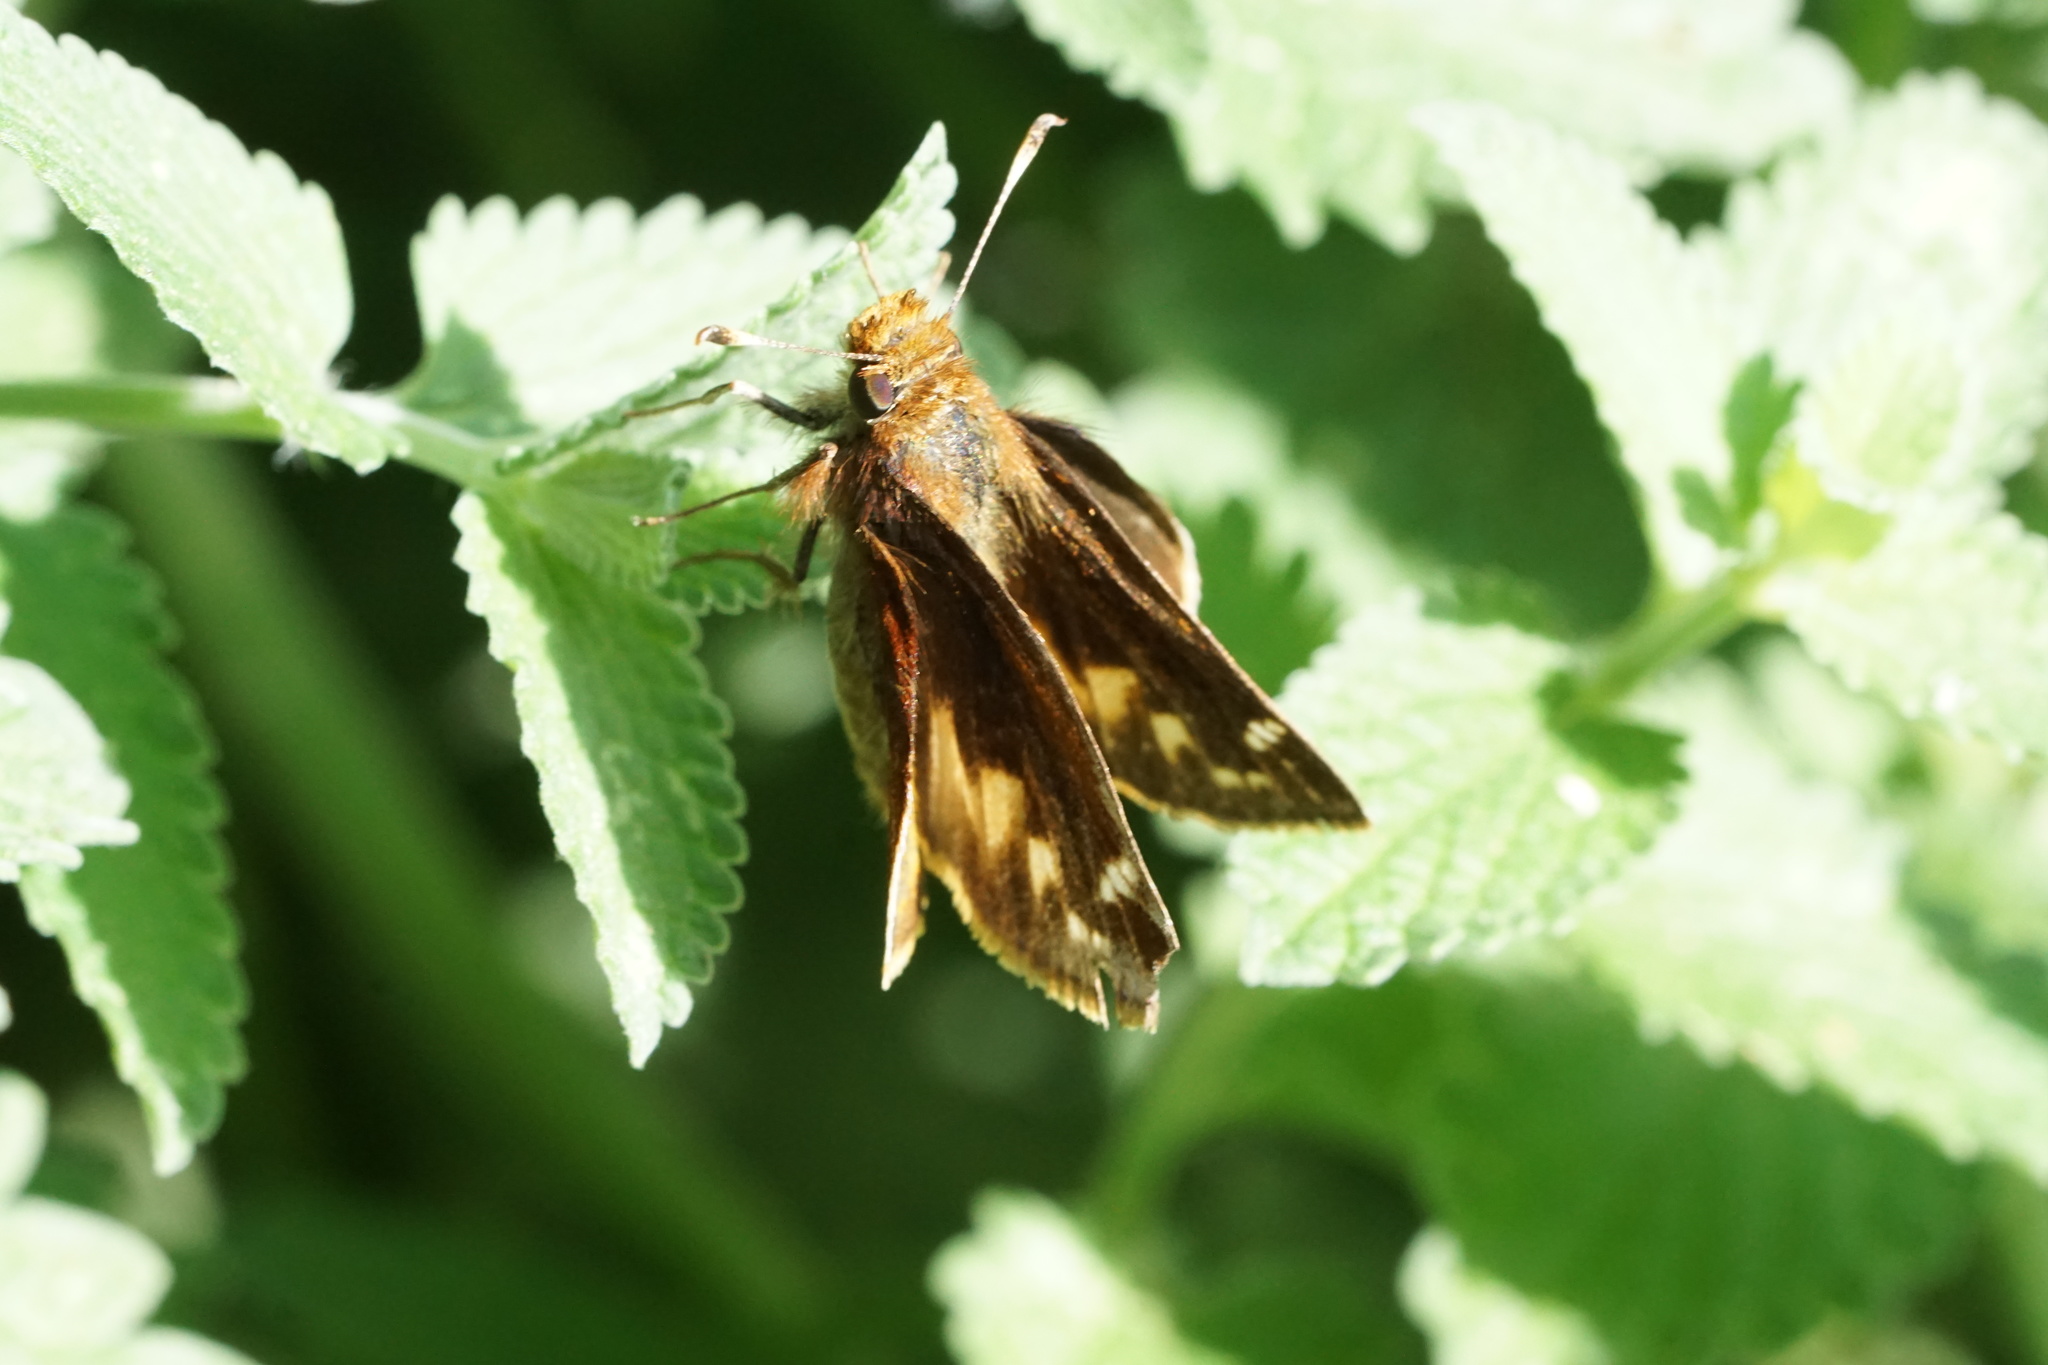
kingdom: Animalia
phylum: Arthropoda
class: Insecta
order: Lepidoptera
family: Hesperiidae
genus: Lon
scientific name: Lon zabulon
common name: Zabulon skipper
